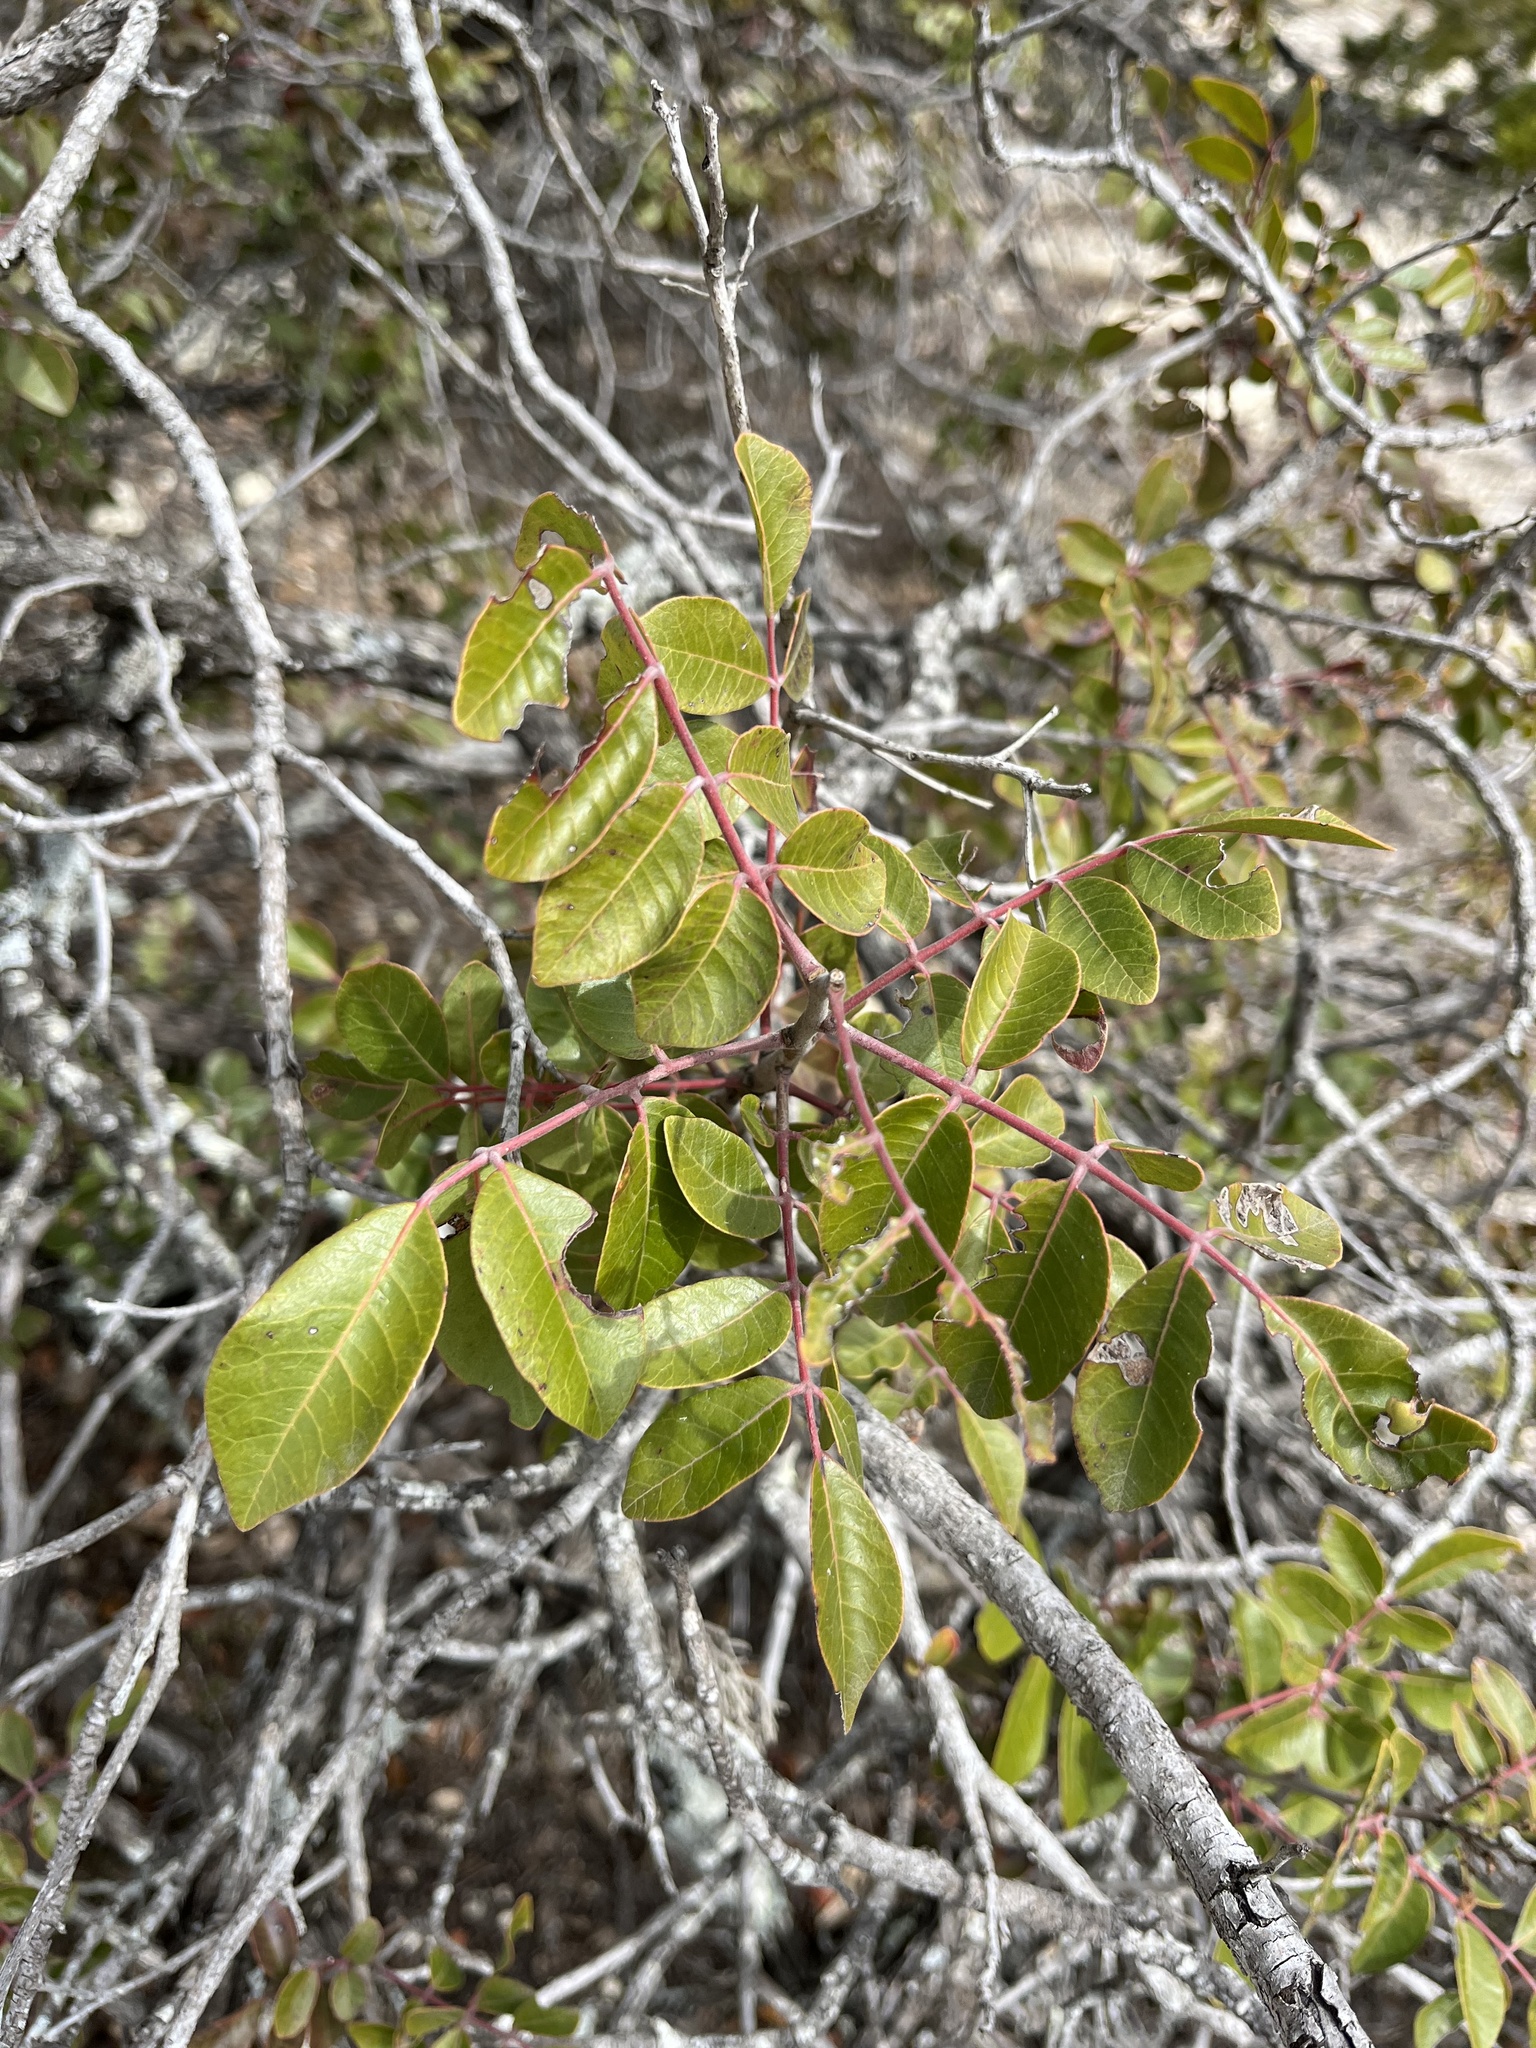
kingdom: Plantae
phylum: Tracheophyta
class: Magnoliopsida
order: Sapindales
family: Anacardiaceae
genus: Rhus
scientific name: Rhus virens
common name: Evergreen sumac
